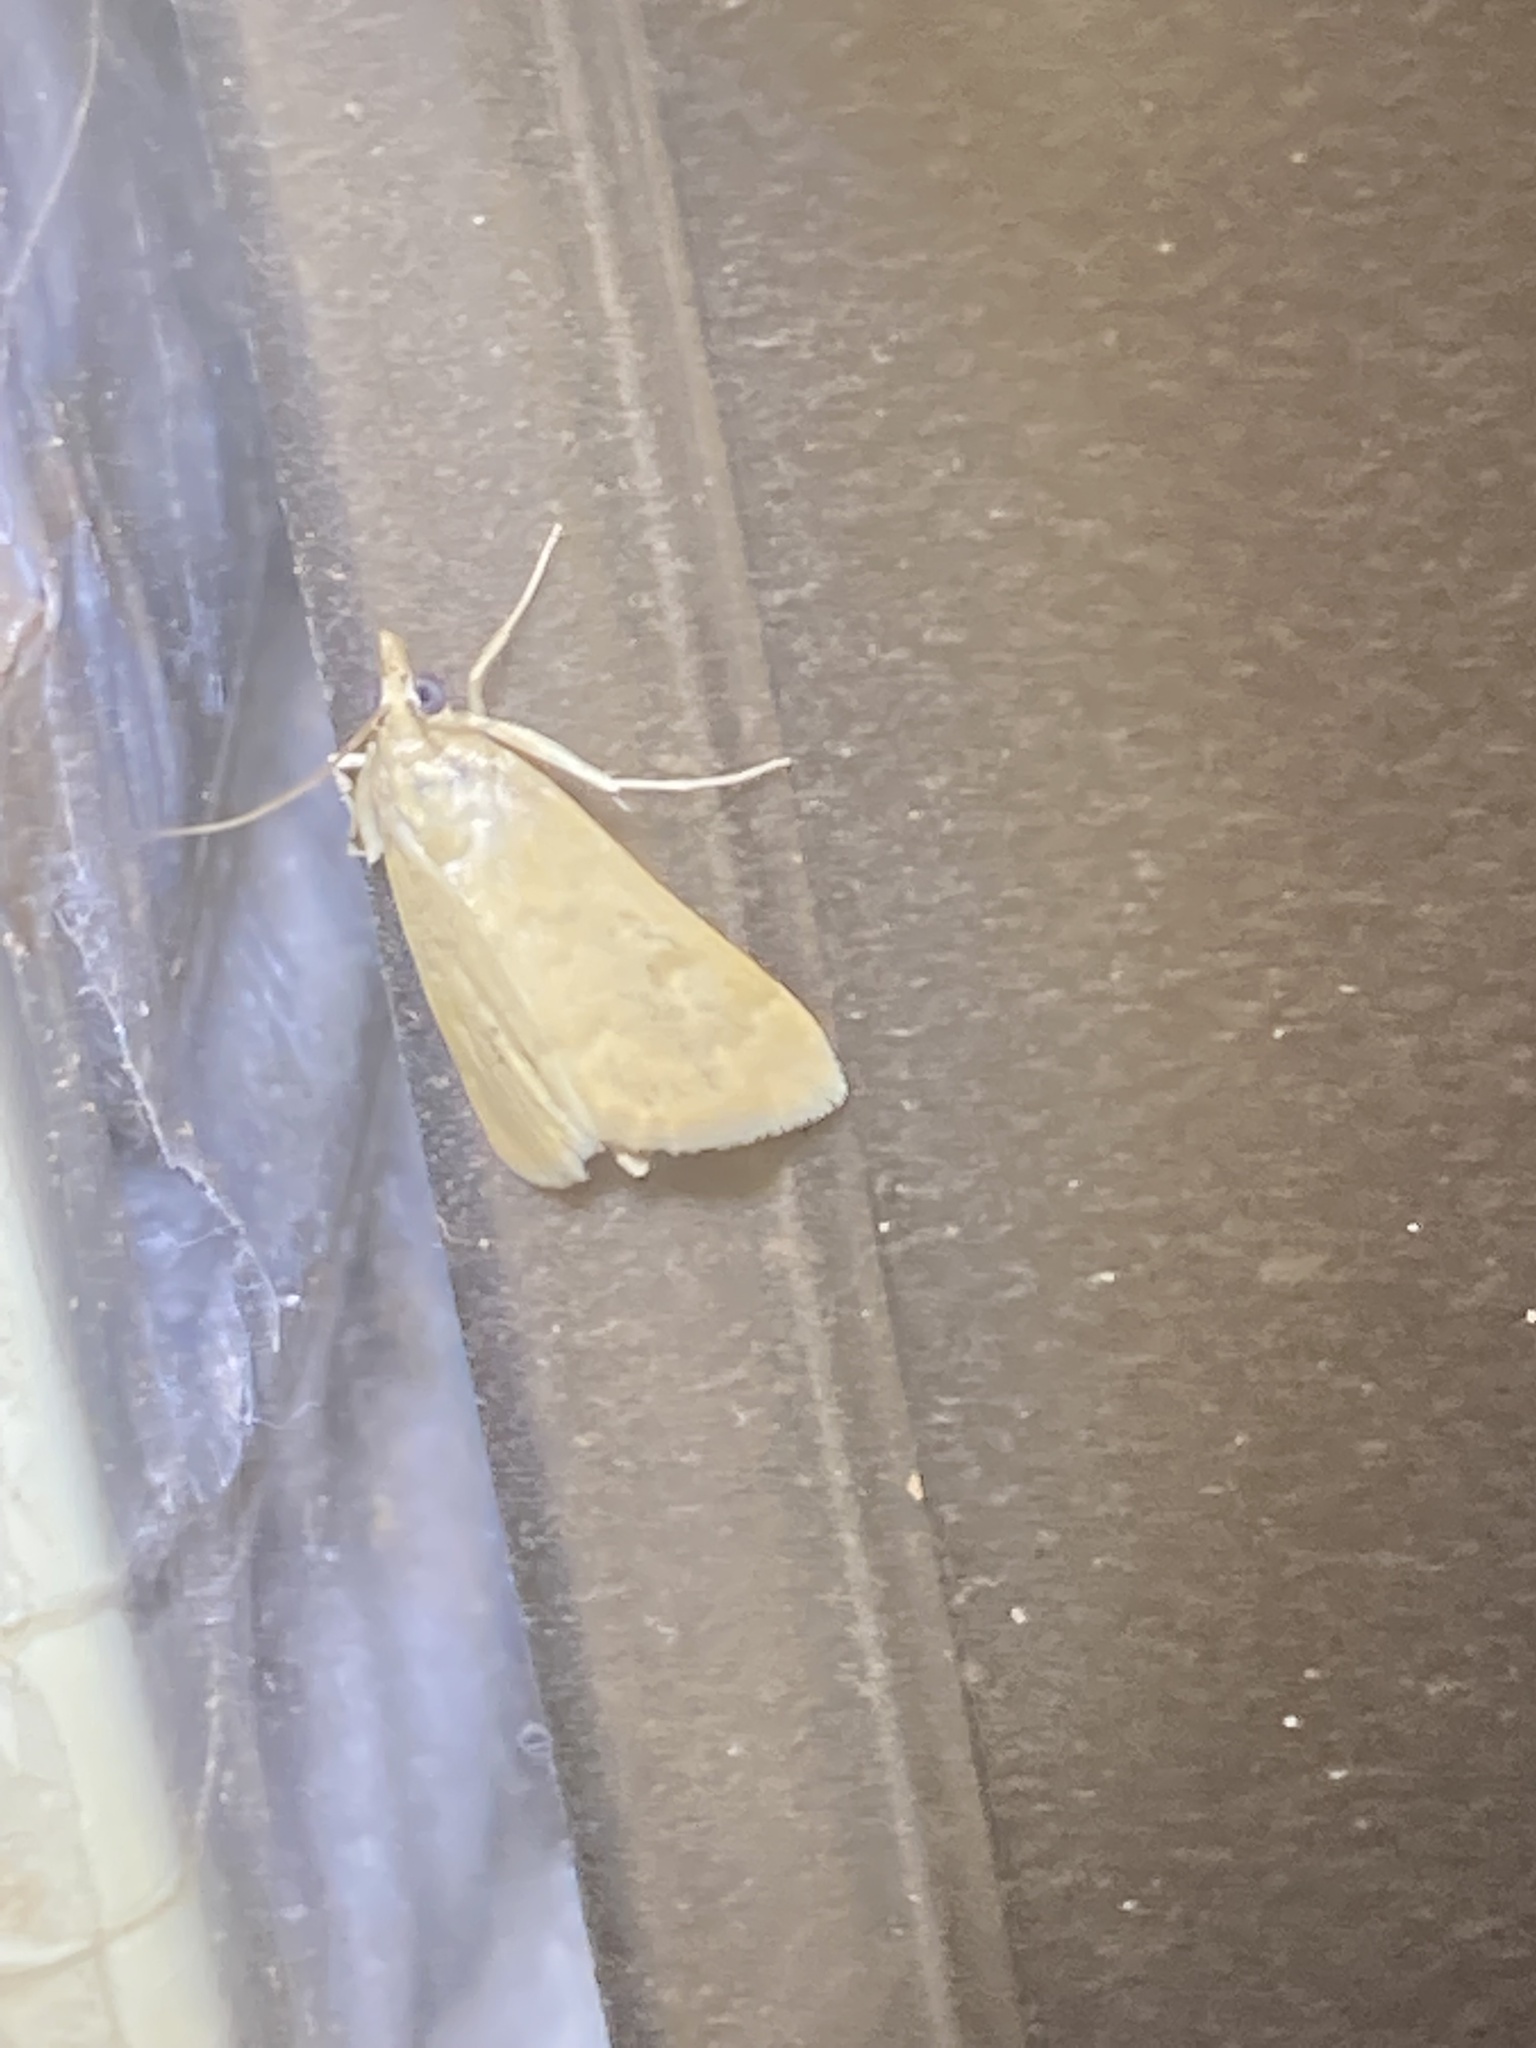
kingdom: Animalia
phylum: Arthropoda
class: Insecta
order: Lepidoptera
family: Crambidae
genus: Achyra
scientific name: Achyra rantalis
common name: Garden webworm
